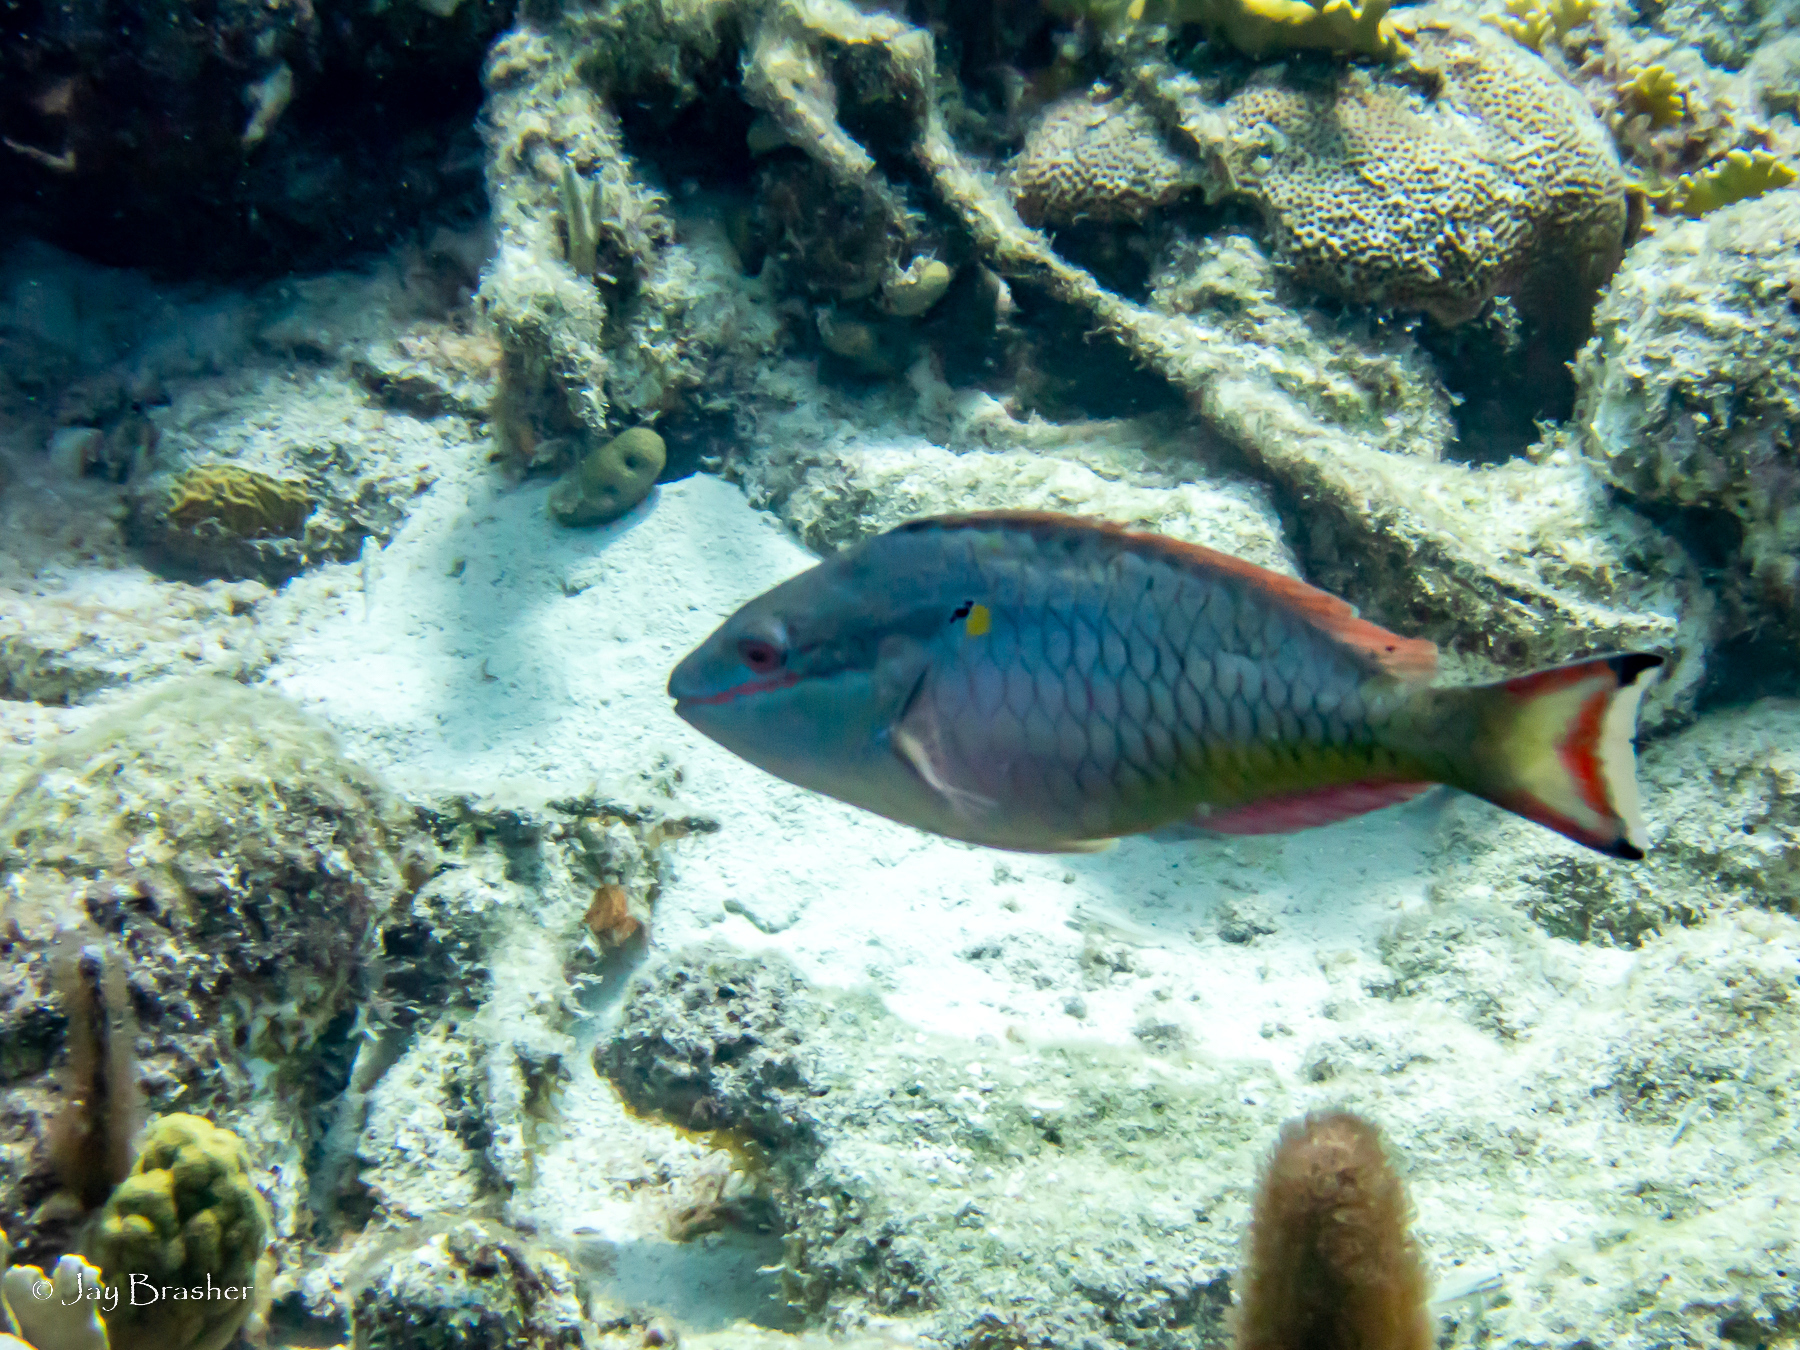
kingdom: Animalia
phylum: Chordata
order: Perciformes
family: Scaridae
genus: Sparisoma
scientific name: Sparisoma aurofrenatum
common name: Redband parrotfish
